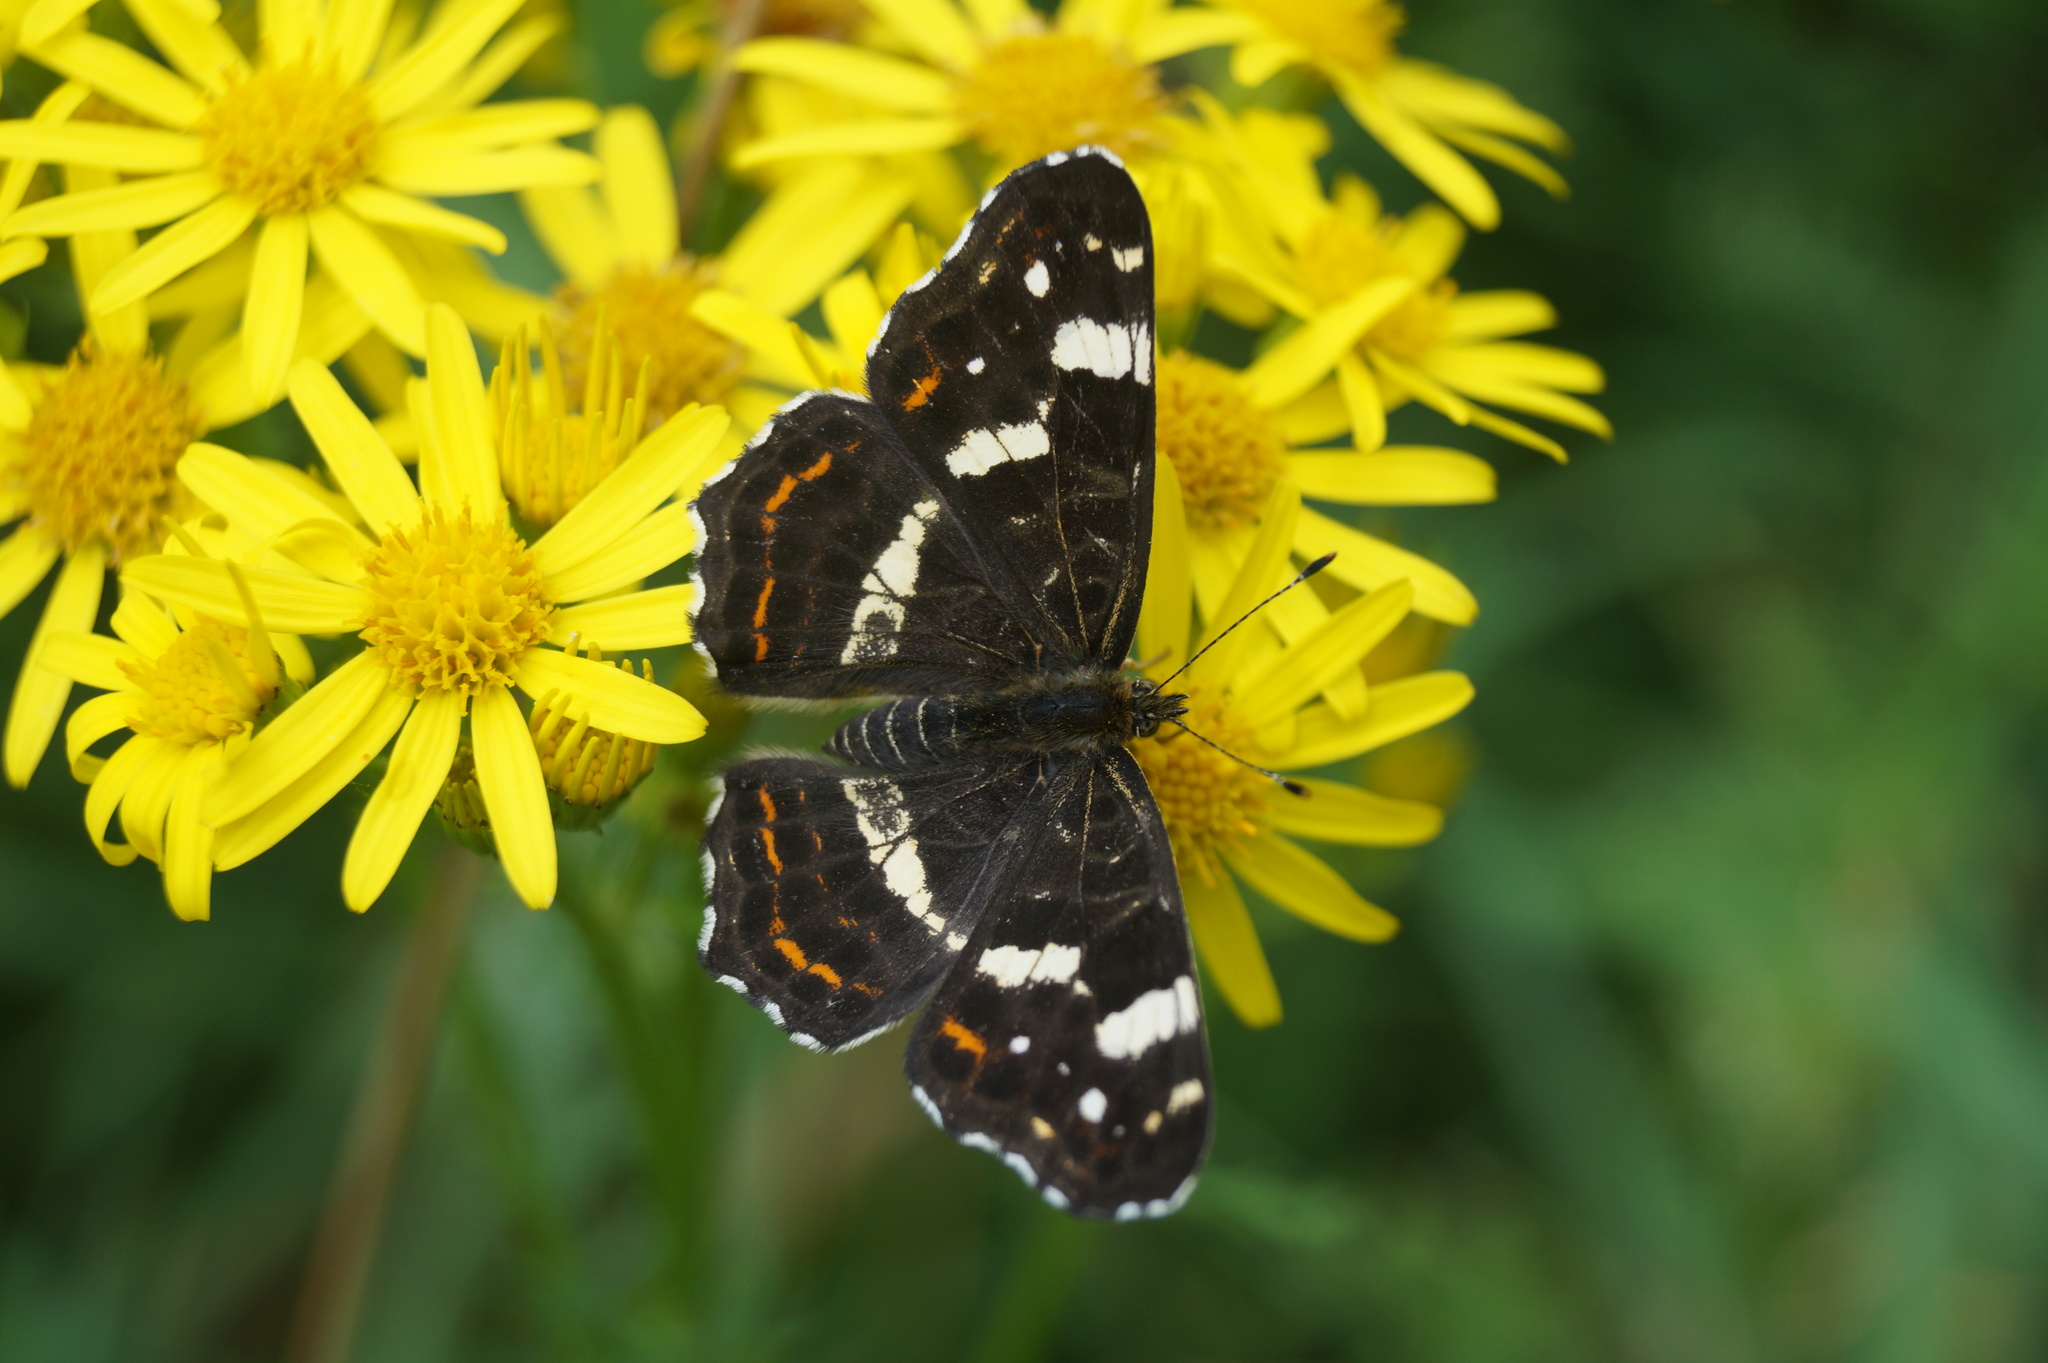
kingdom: Animalia
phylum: Arthropoda
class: Insecta
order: Lepidoptera
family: Nymphalidae
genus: Araschnia
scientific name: Araschnia levana
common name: Map butterfly
